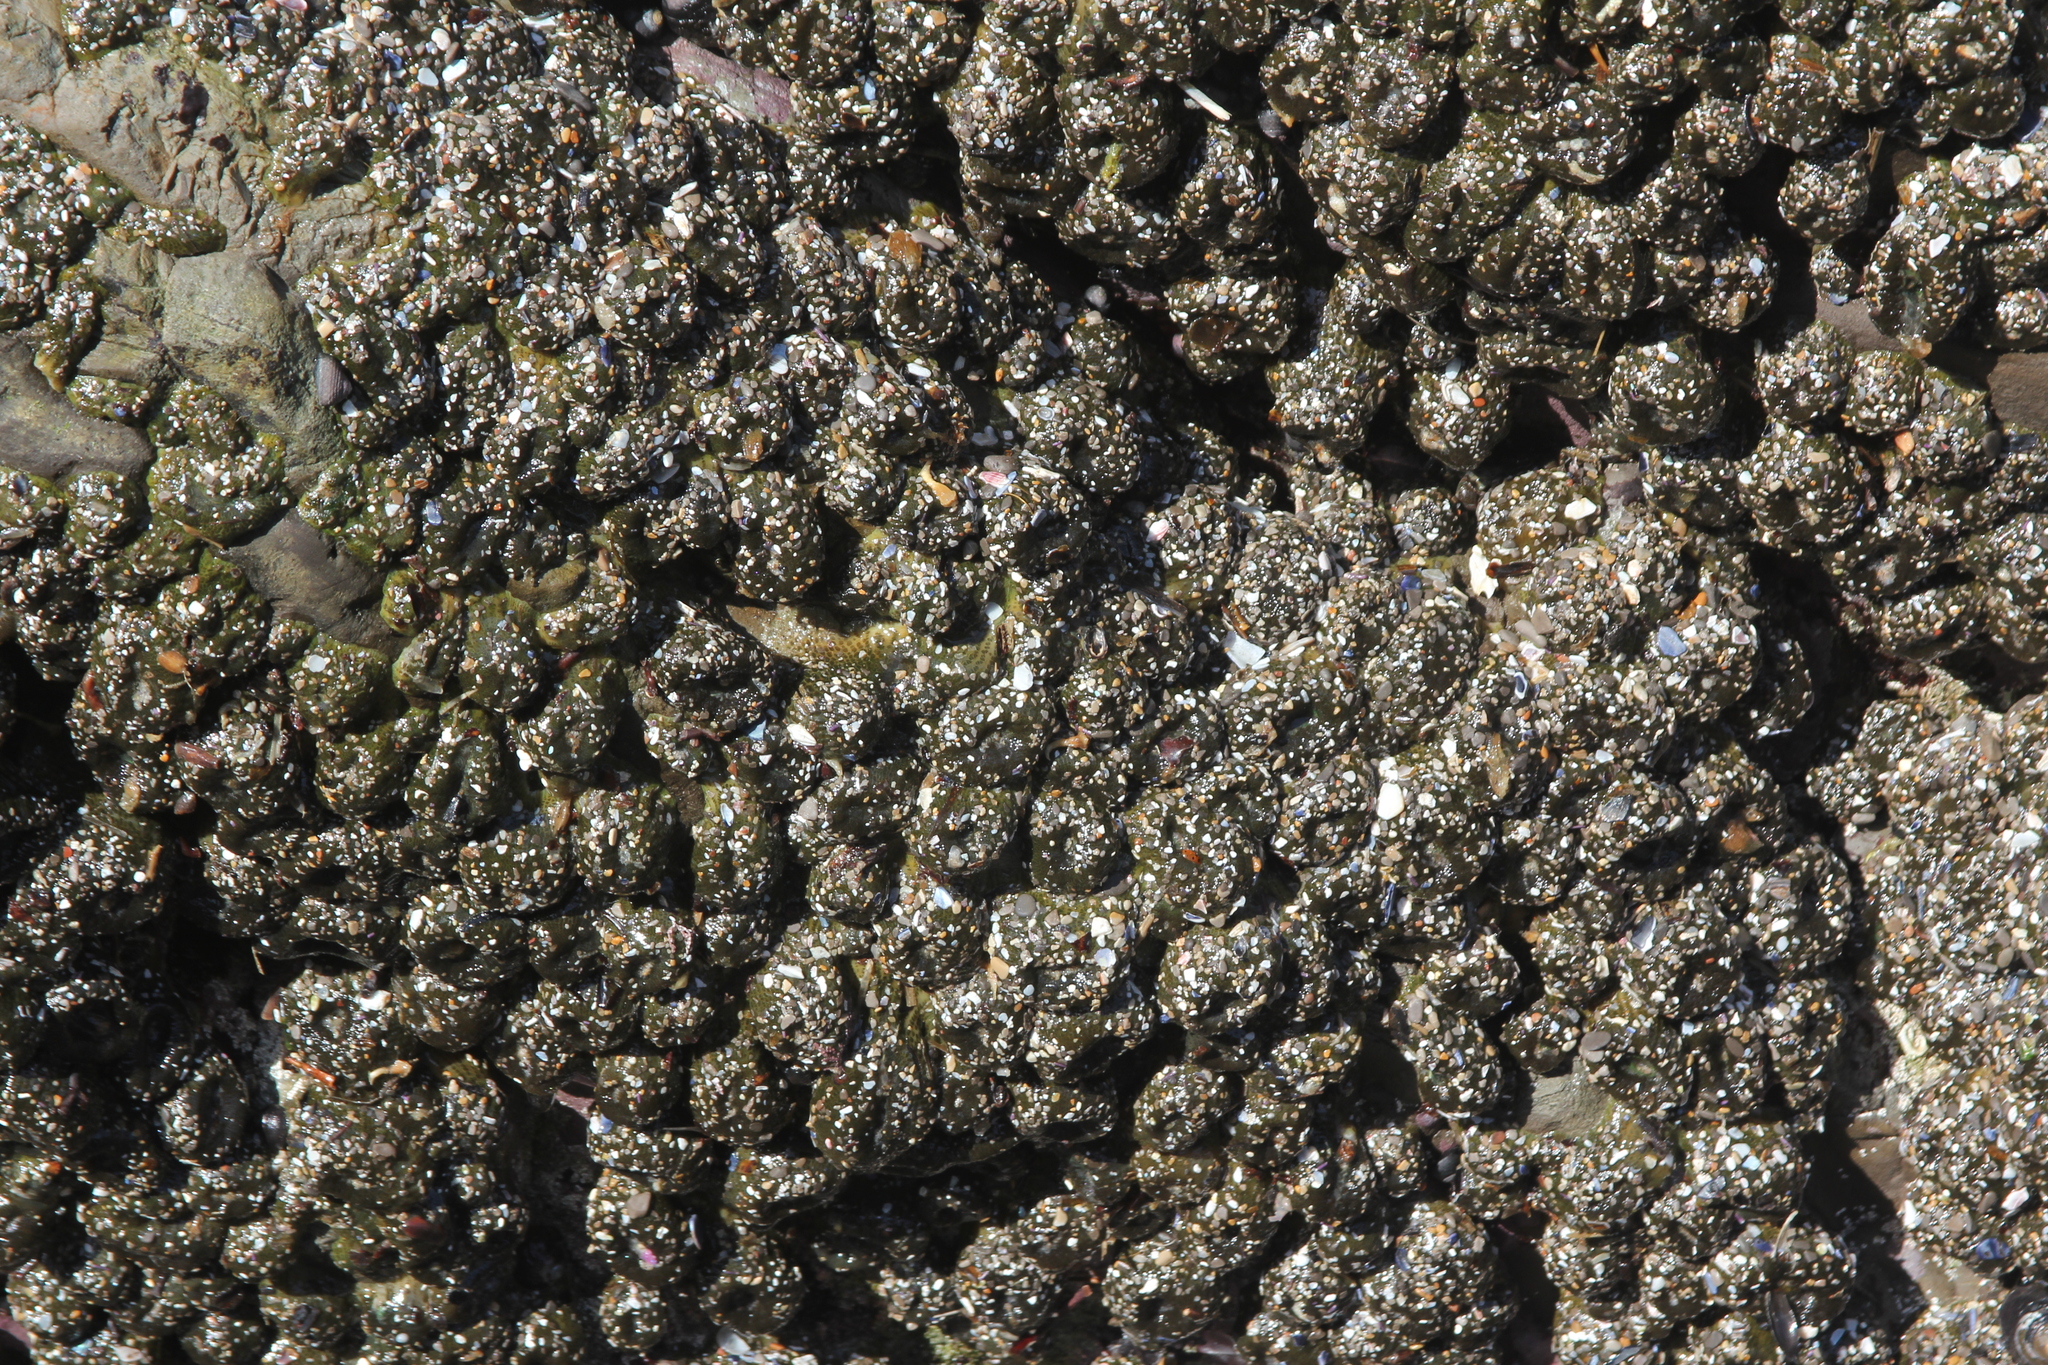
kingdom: Animalia
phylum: Cnidaria
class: Anthozoa
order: Actiniaria
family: Actiniidae
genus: Anthopleura
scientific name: Anthopleura elegantissima
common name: Clonal anemone
